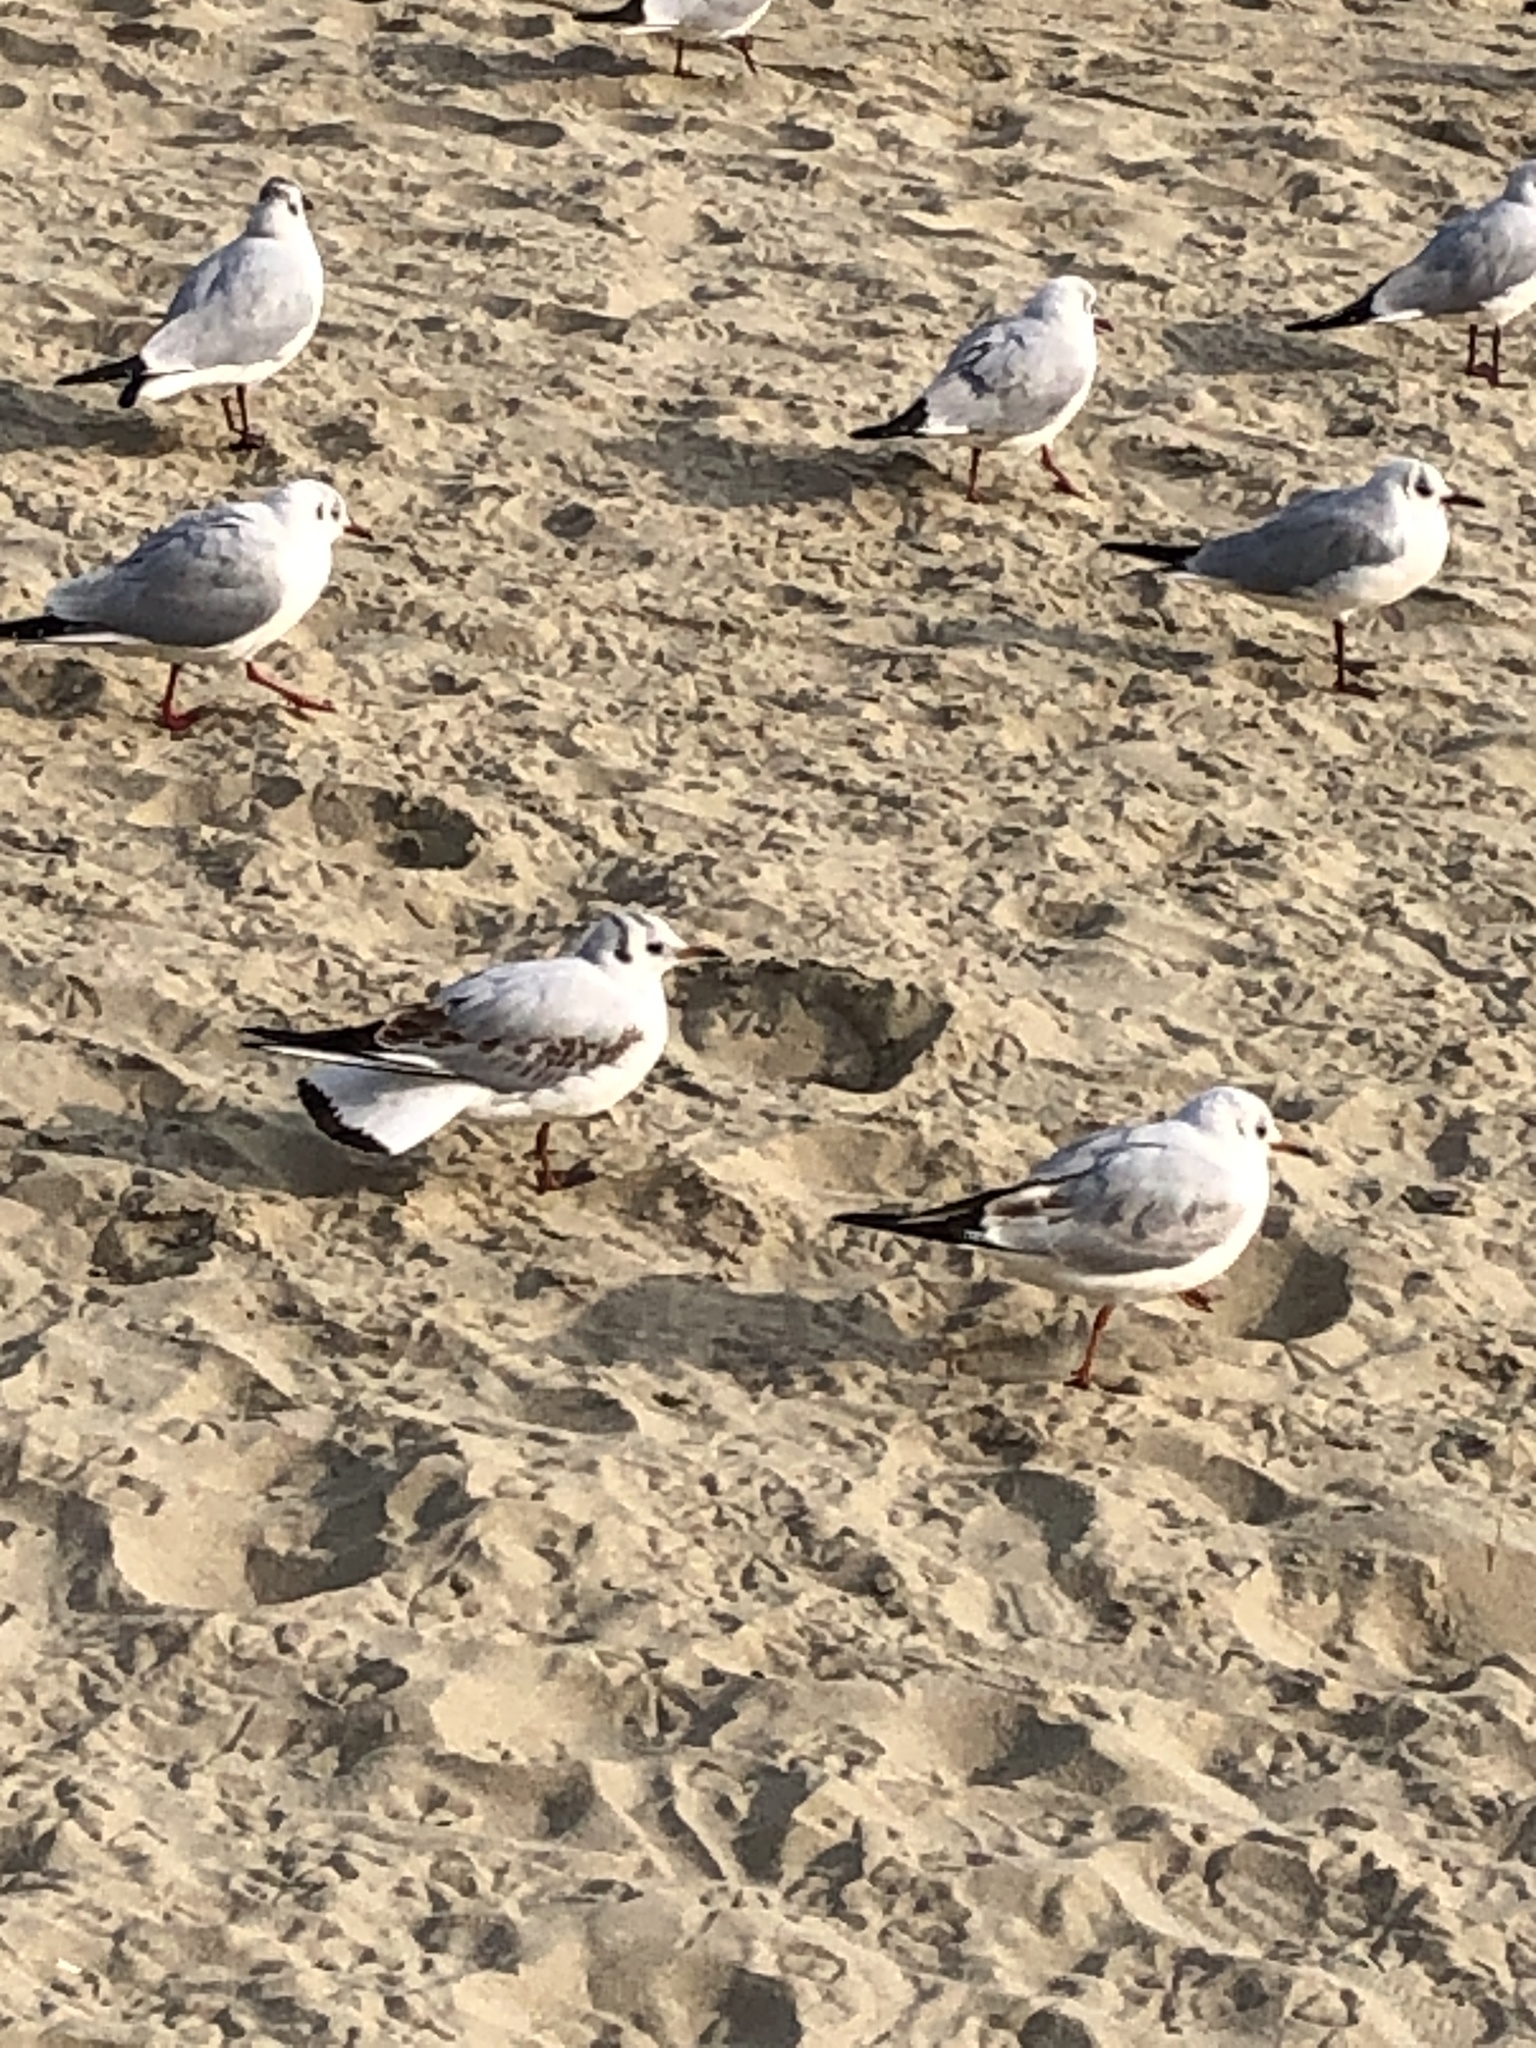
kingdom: Animalia
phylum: Chordata
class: Aves
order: Charadriiformes
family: Laridae
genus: Chroicocephalus
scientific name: Chroicocephalus ridibundus
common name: Black-headed gull
